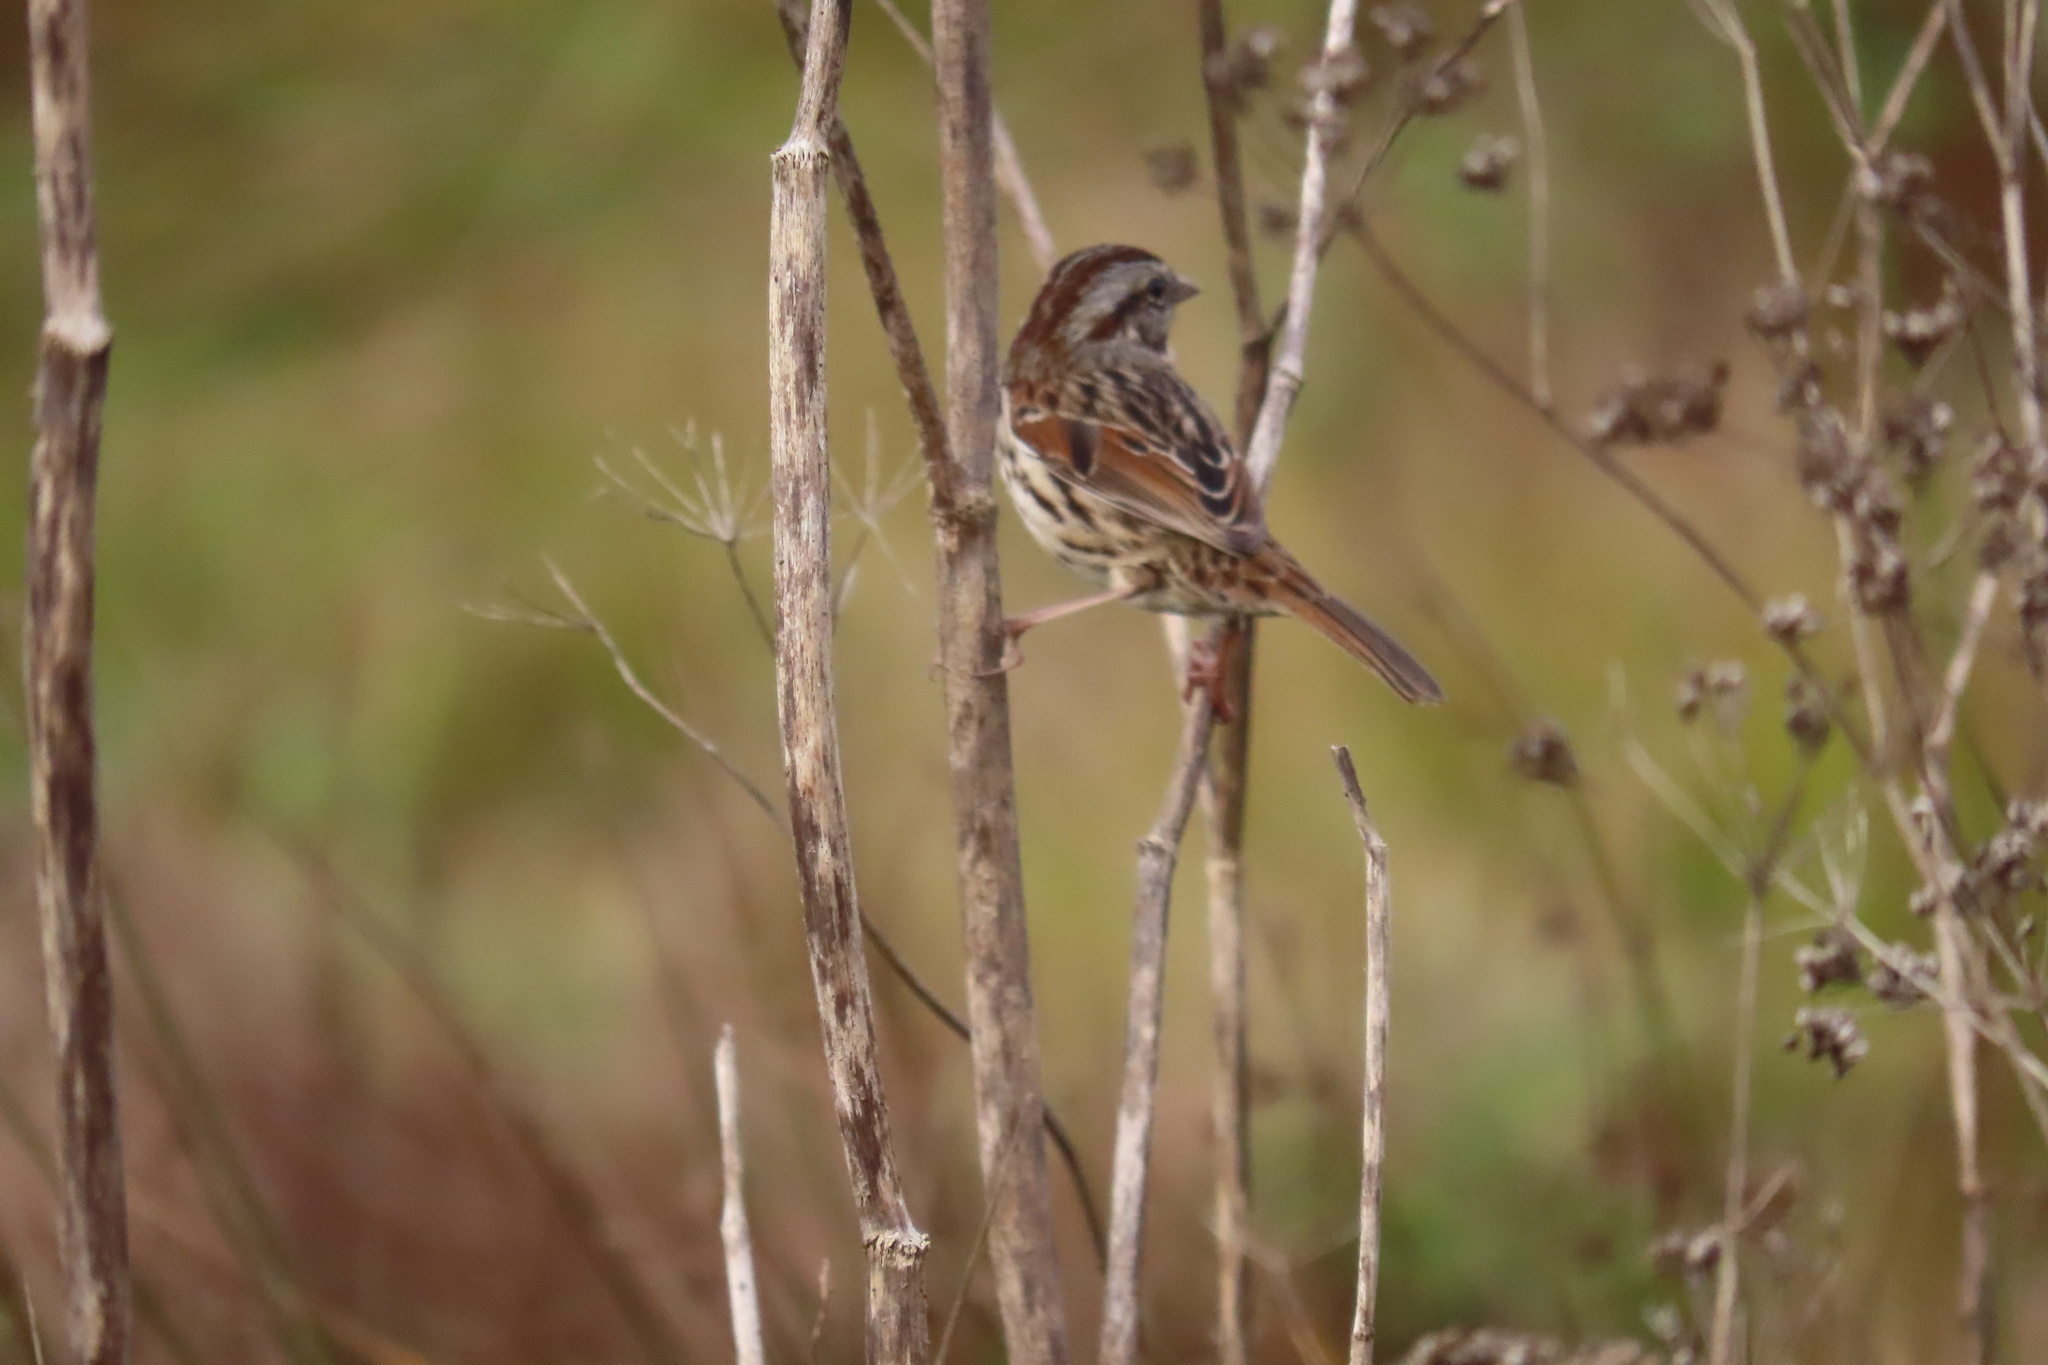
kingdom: Animalia
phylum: Chordata
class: Aves
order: Passeriformes
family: Passerellidae
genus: Melospiza
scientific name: Melospiza melodia
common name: Song sparrow
